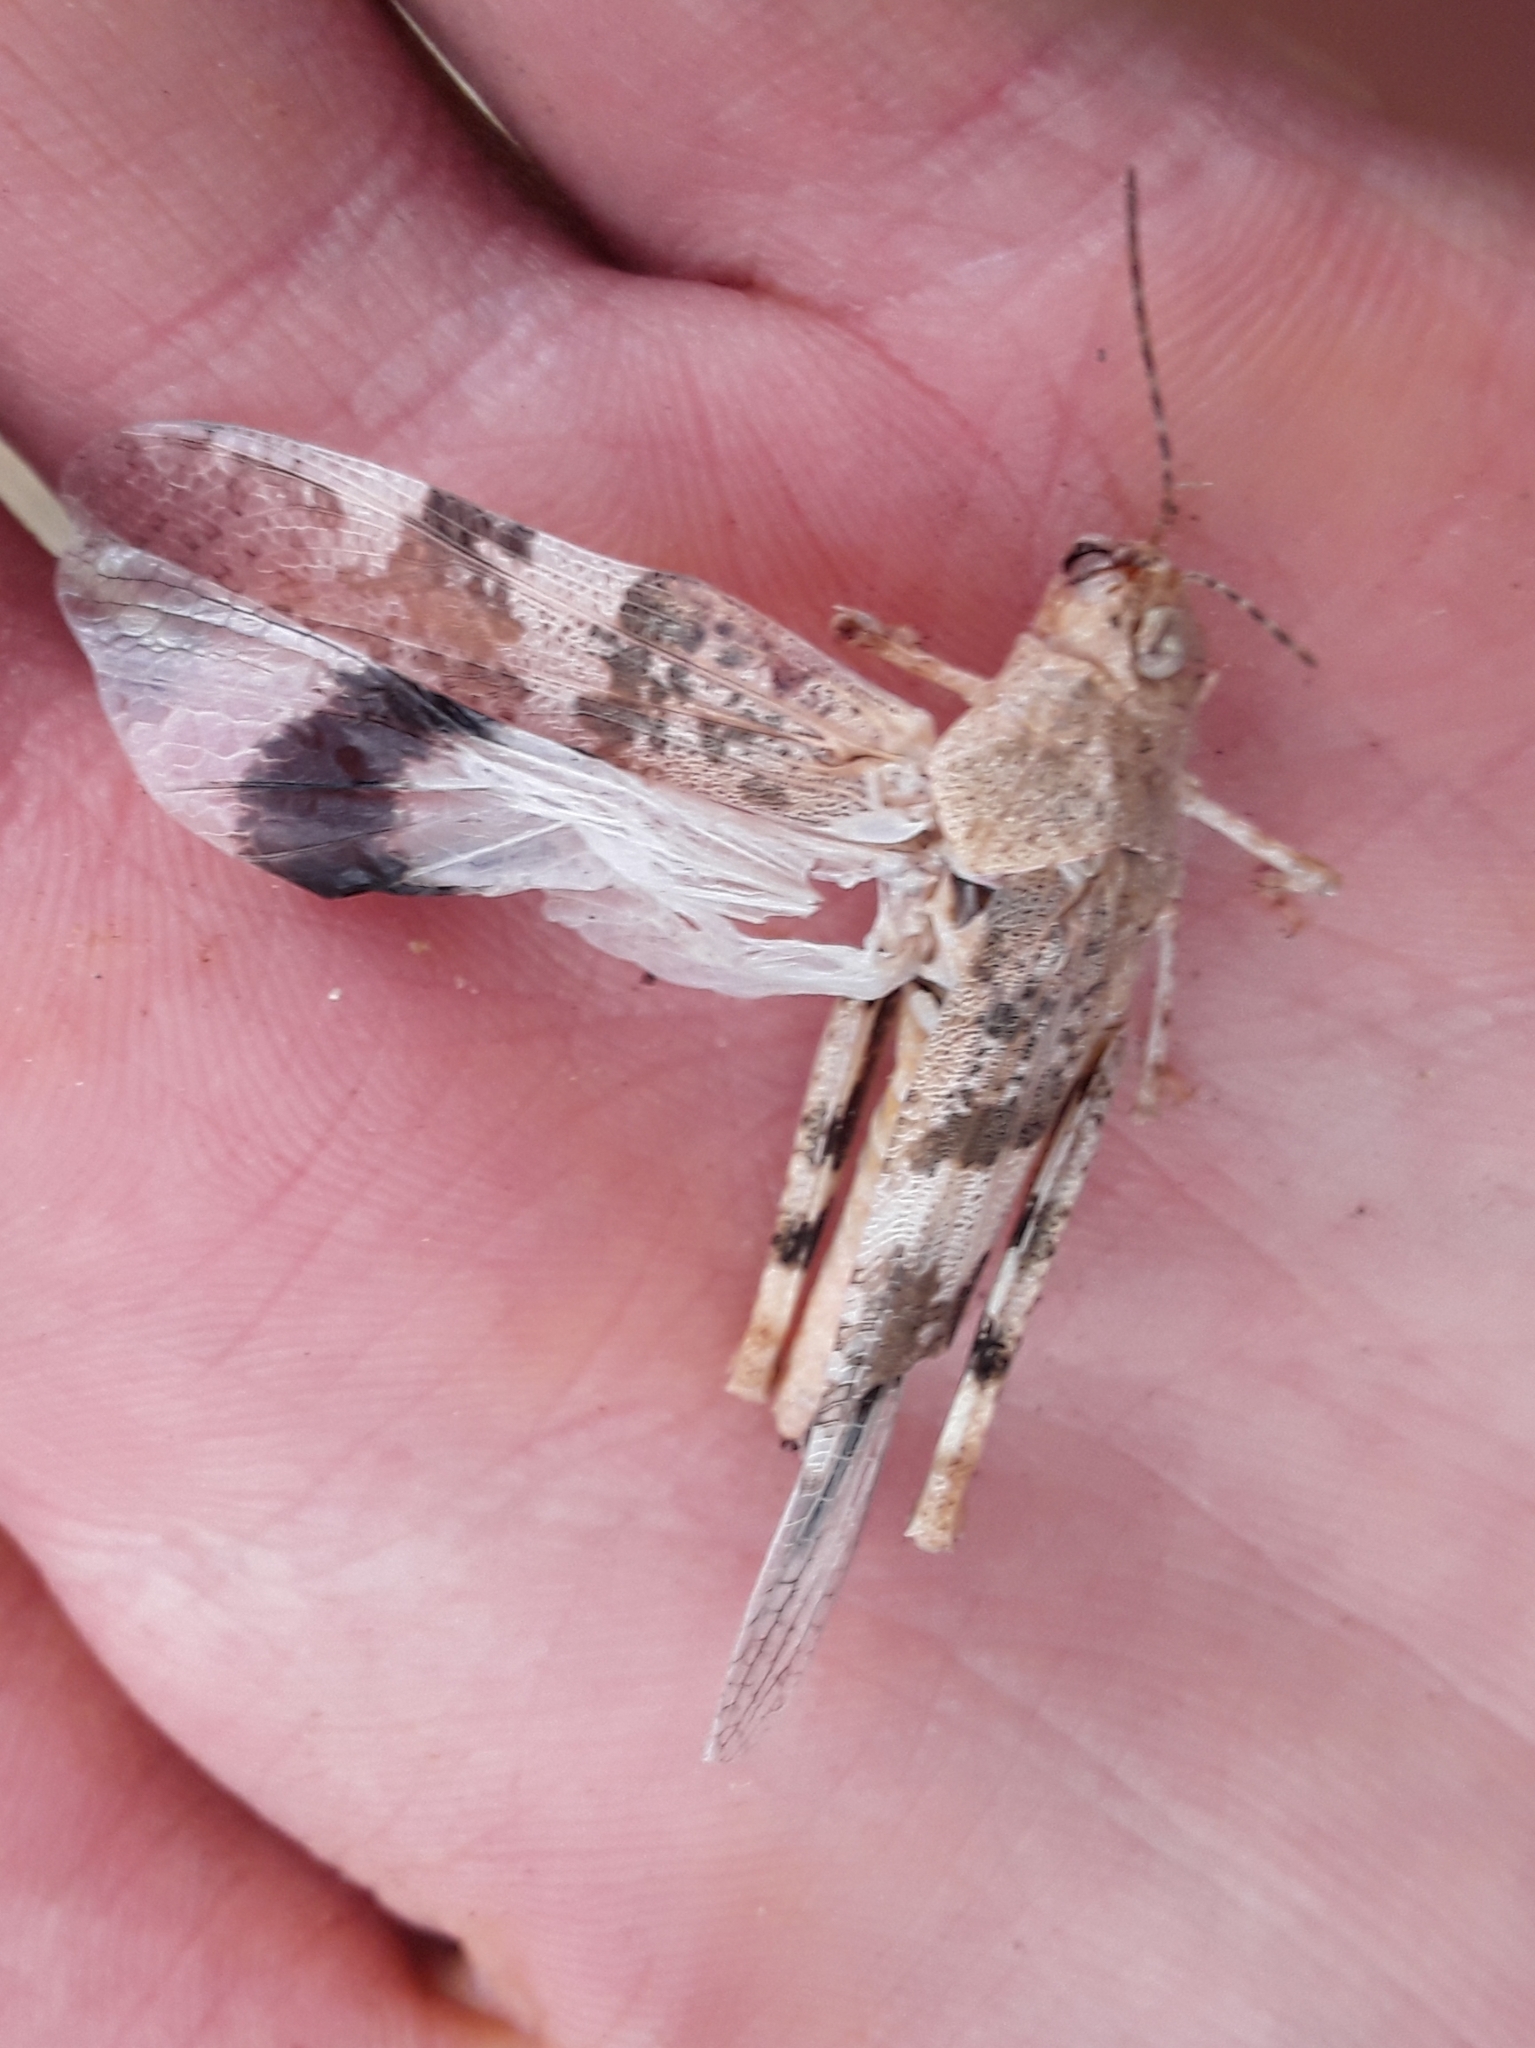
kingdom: Animalia
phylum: Arthropoda
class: Insecta
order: Orthoptera
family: Acrididae
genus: Trimerotropis
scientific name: Trimerotropis pallidipennis
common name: Pallid-winged grasshopper
